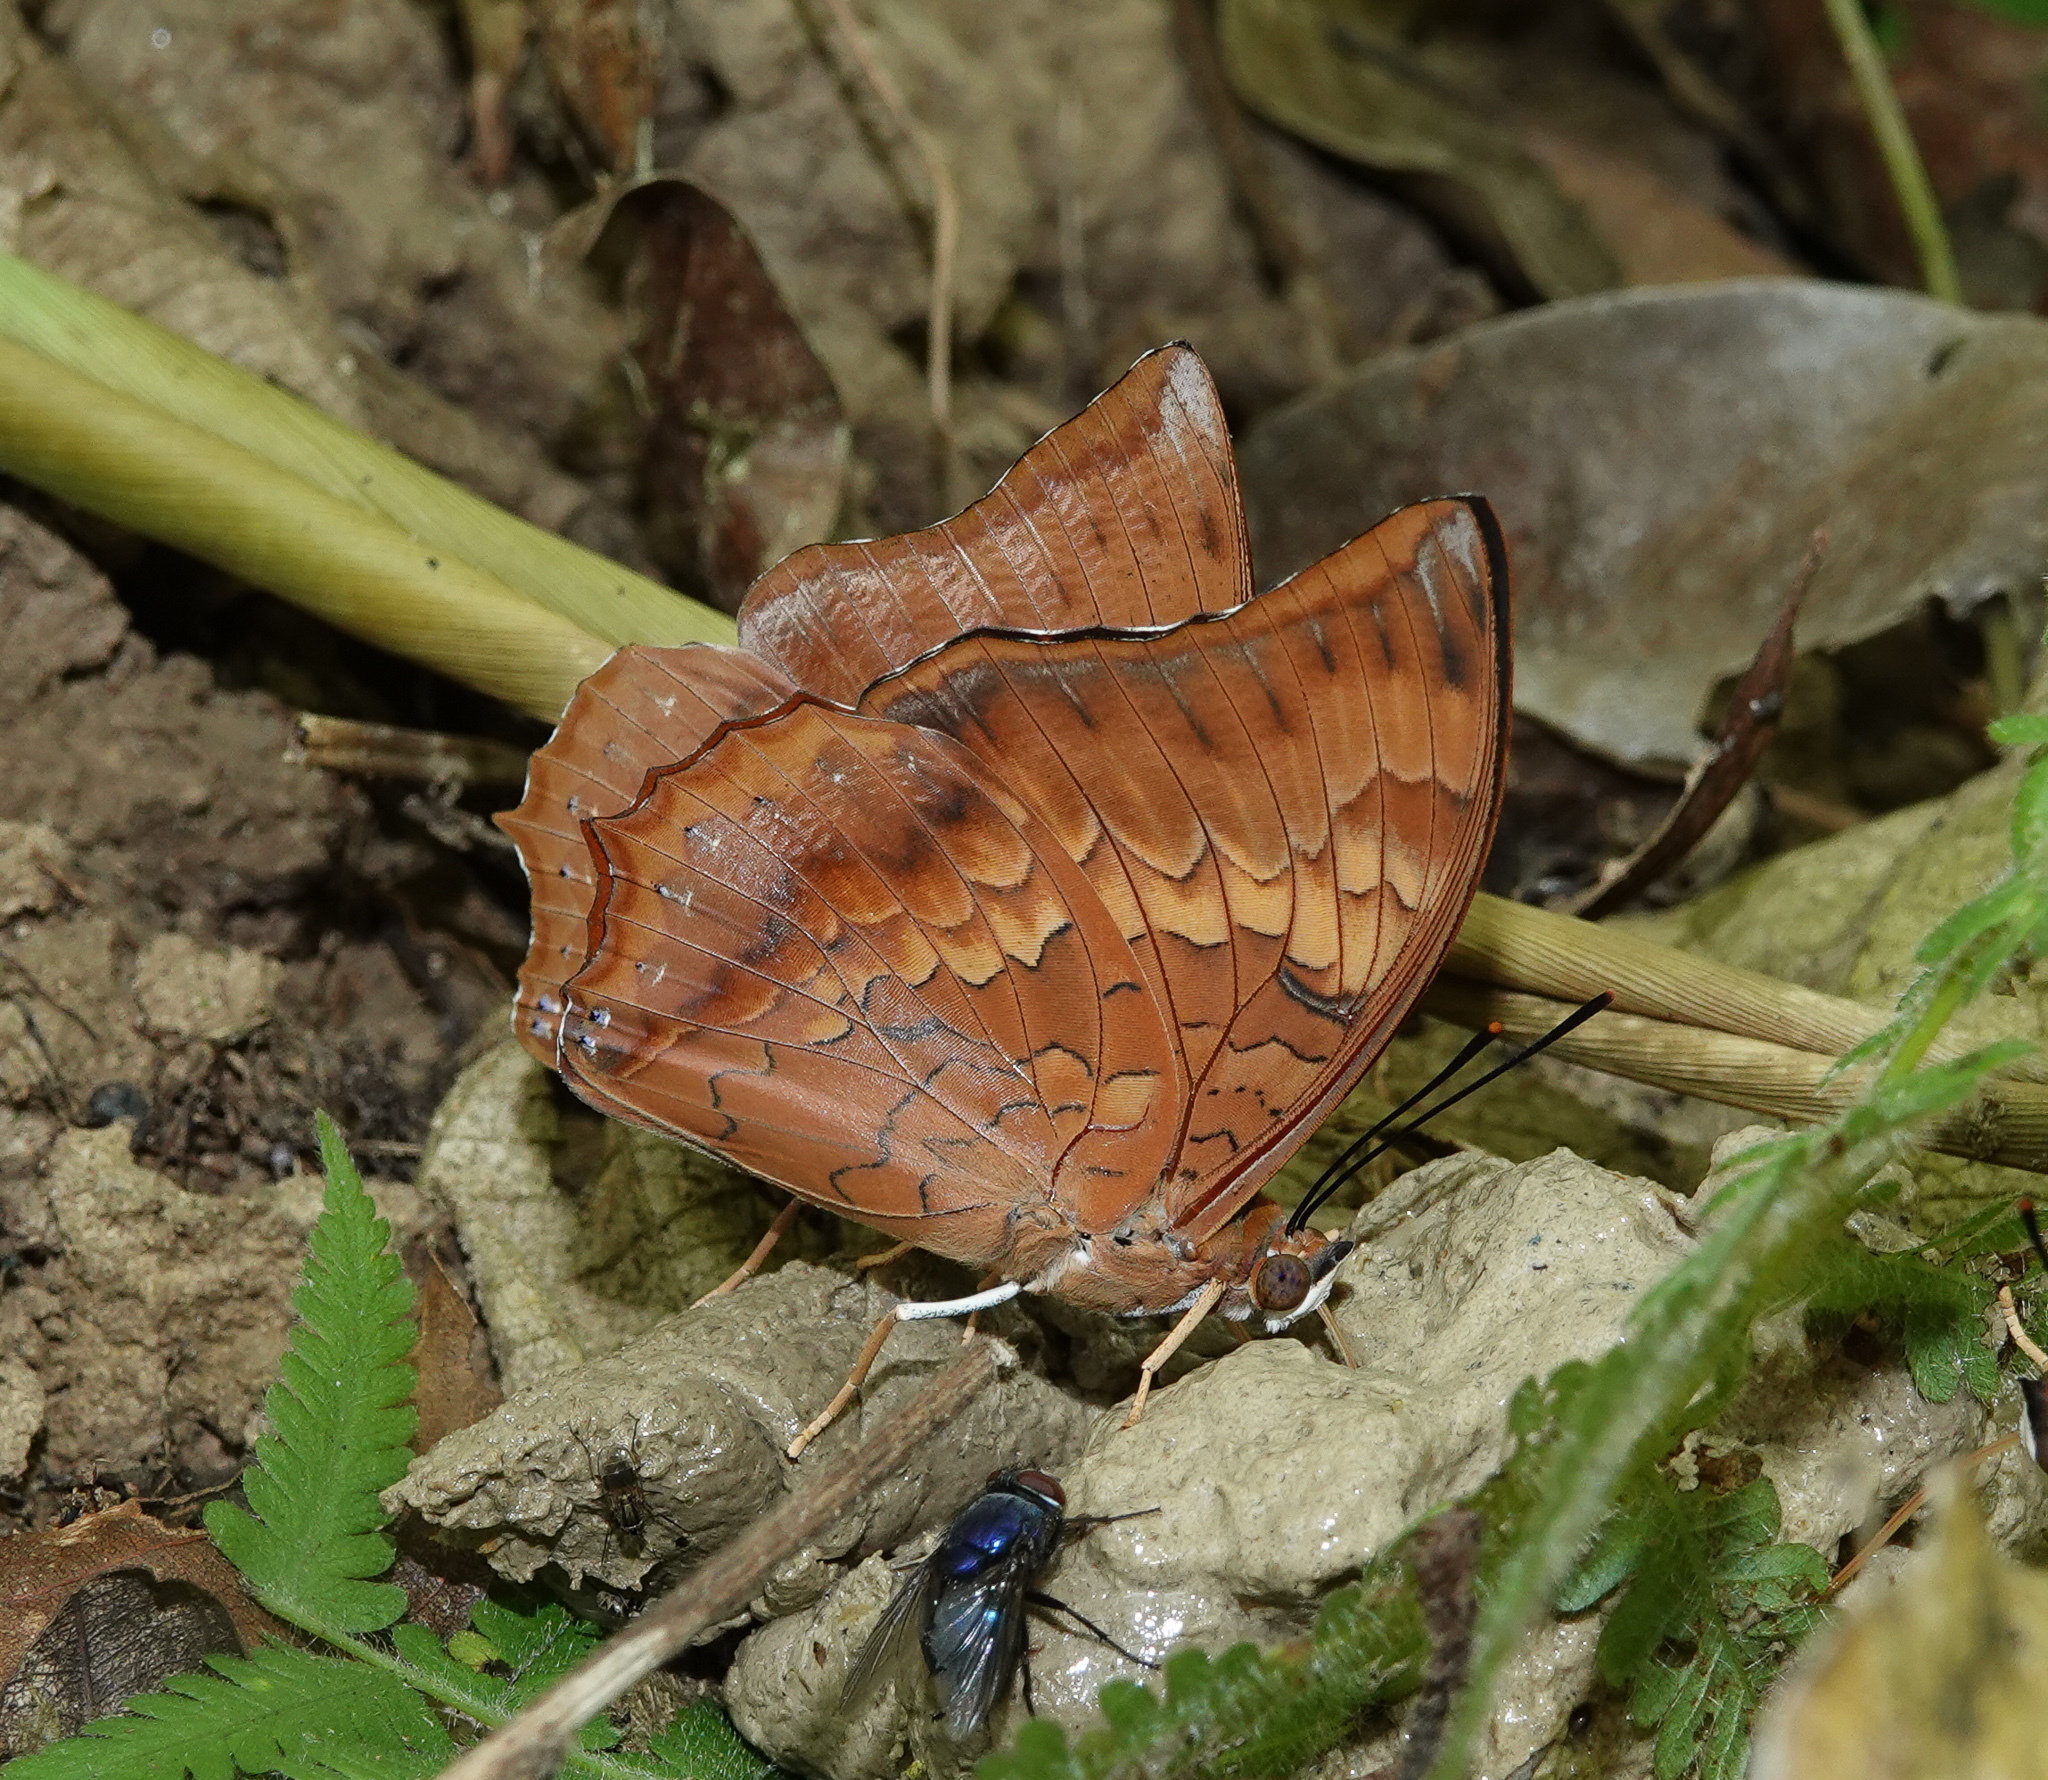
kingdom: Animalia
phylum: Arthropoda
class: Insecta
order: Lepidoptera
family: Nymphalidae
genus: Charaxes
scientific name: Charaxes bernardus
